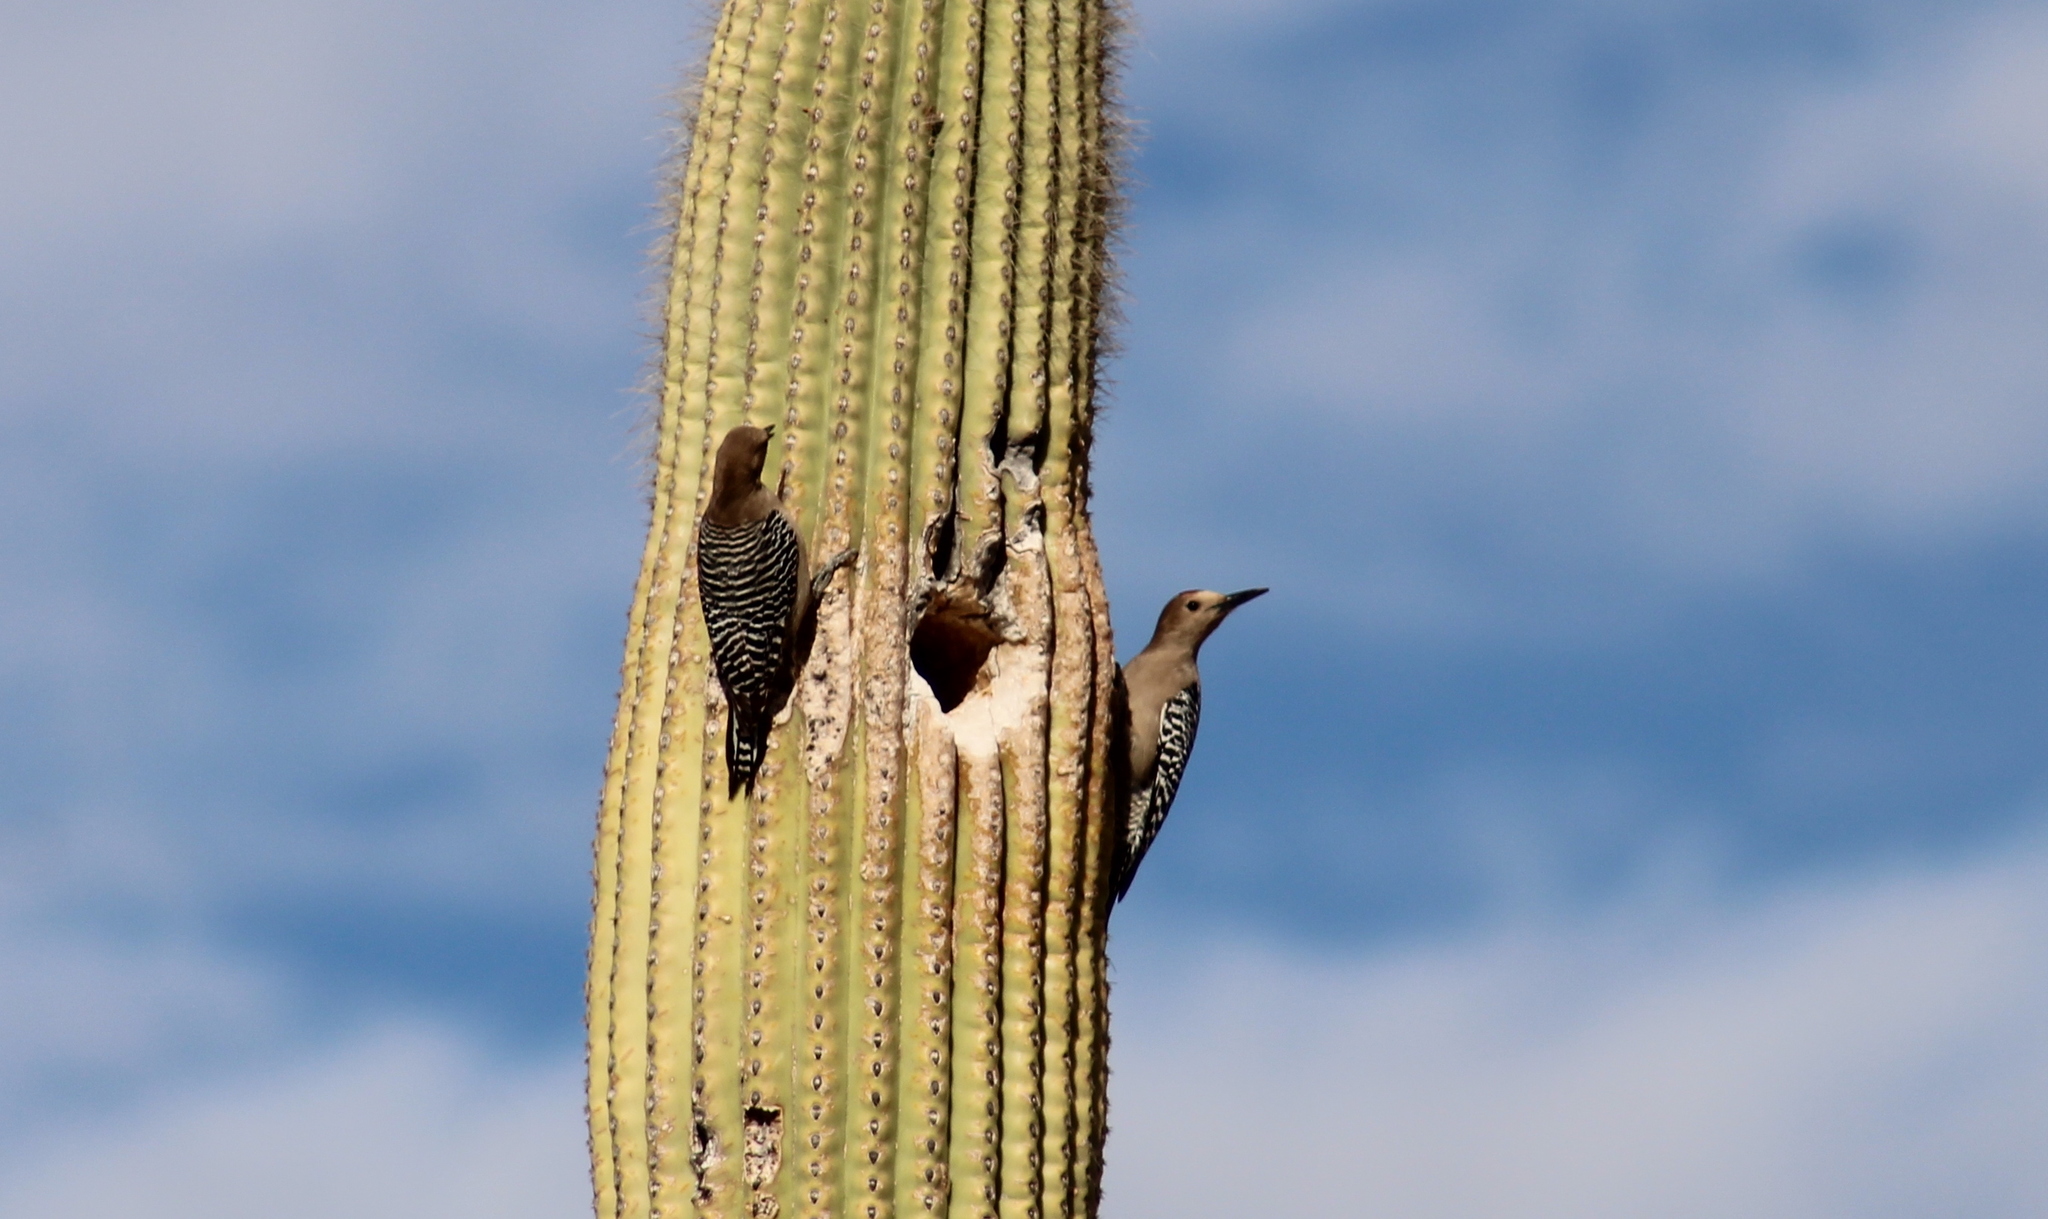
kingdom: Animalia
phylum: Chordata
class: Aves
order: Piciformes
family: Picidae
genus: Melanerpes
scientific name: Melanerpes uropygialis
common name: Gila woodpecker
